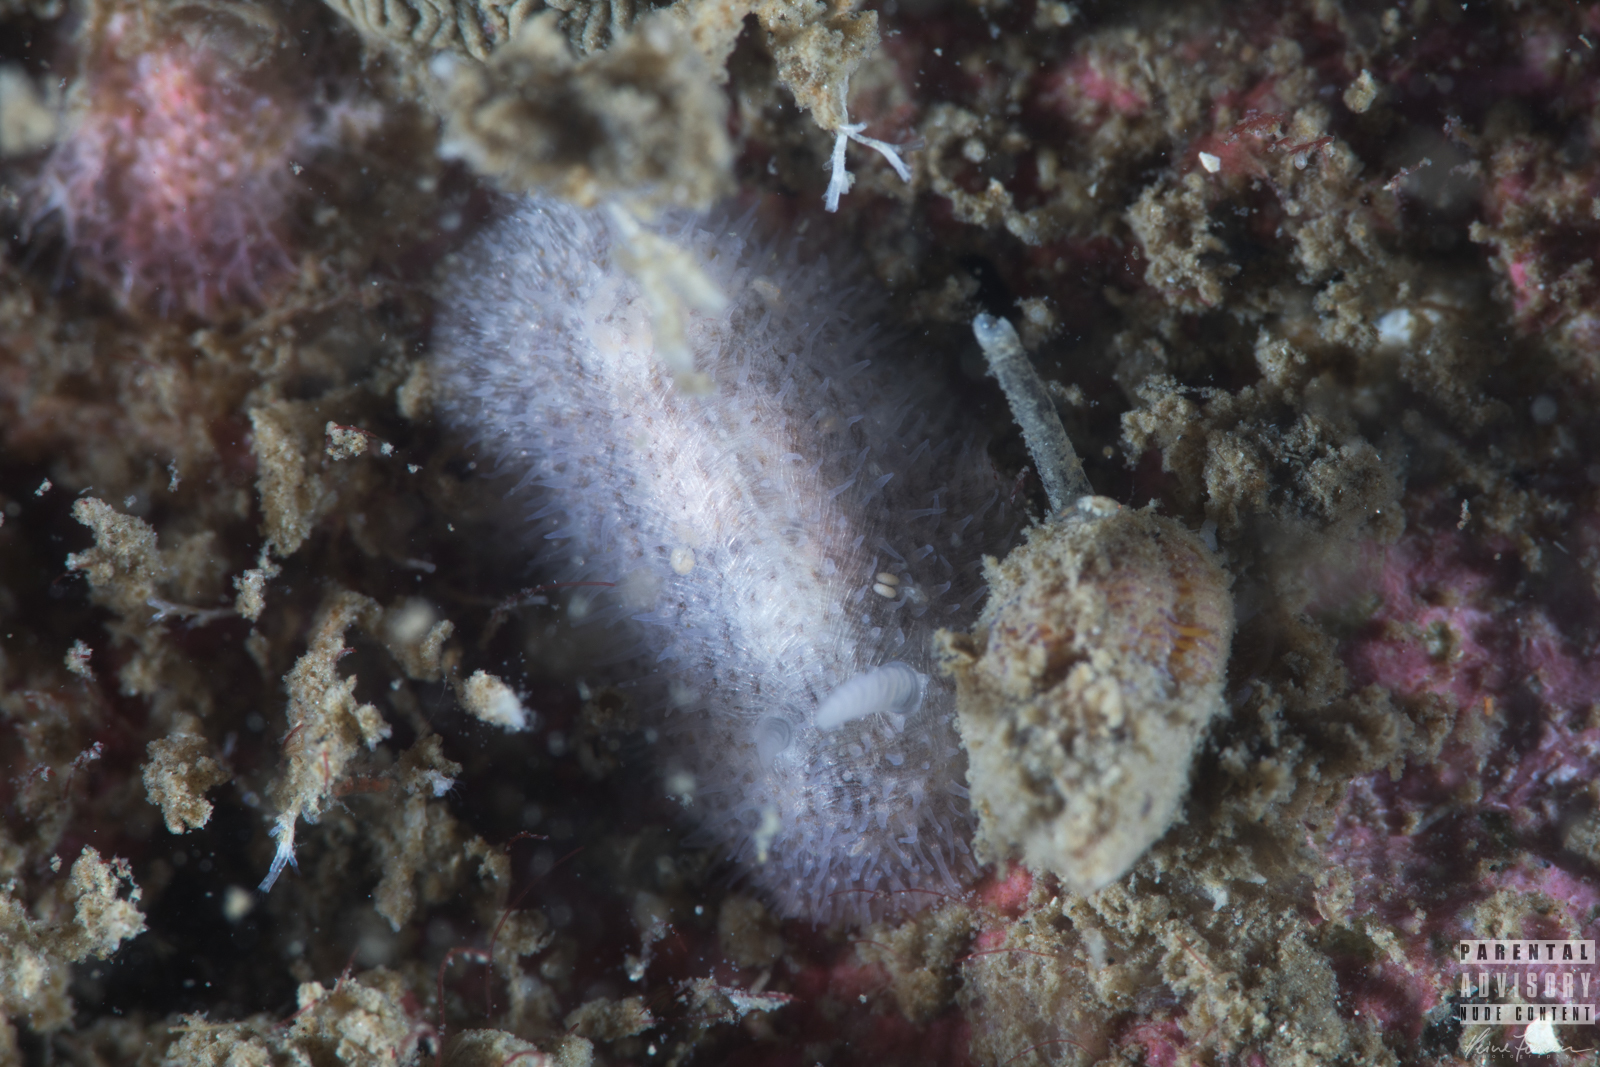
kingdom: Animalia
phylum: Mollusca
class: Gastropoda
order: Nudibranchia
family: Onchidorididae
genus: Idaliadoris
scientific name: Idaliadoris depressa
